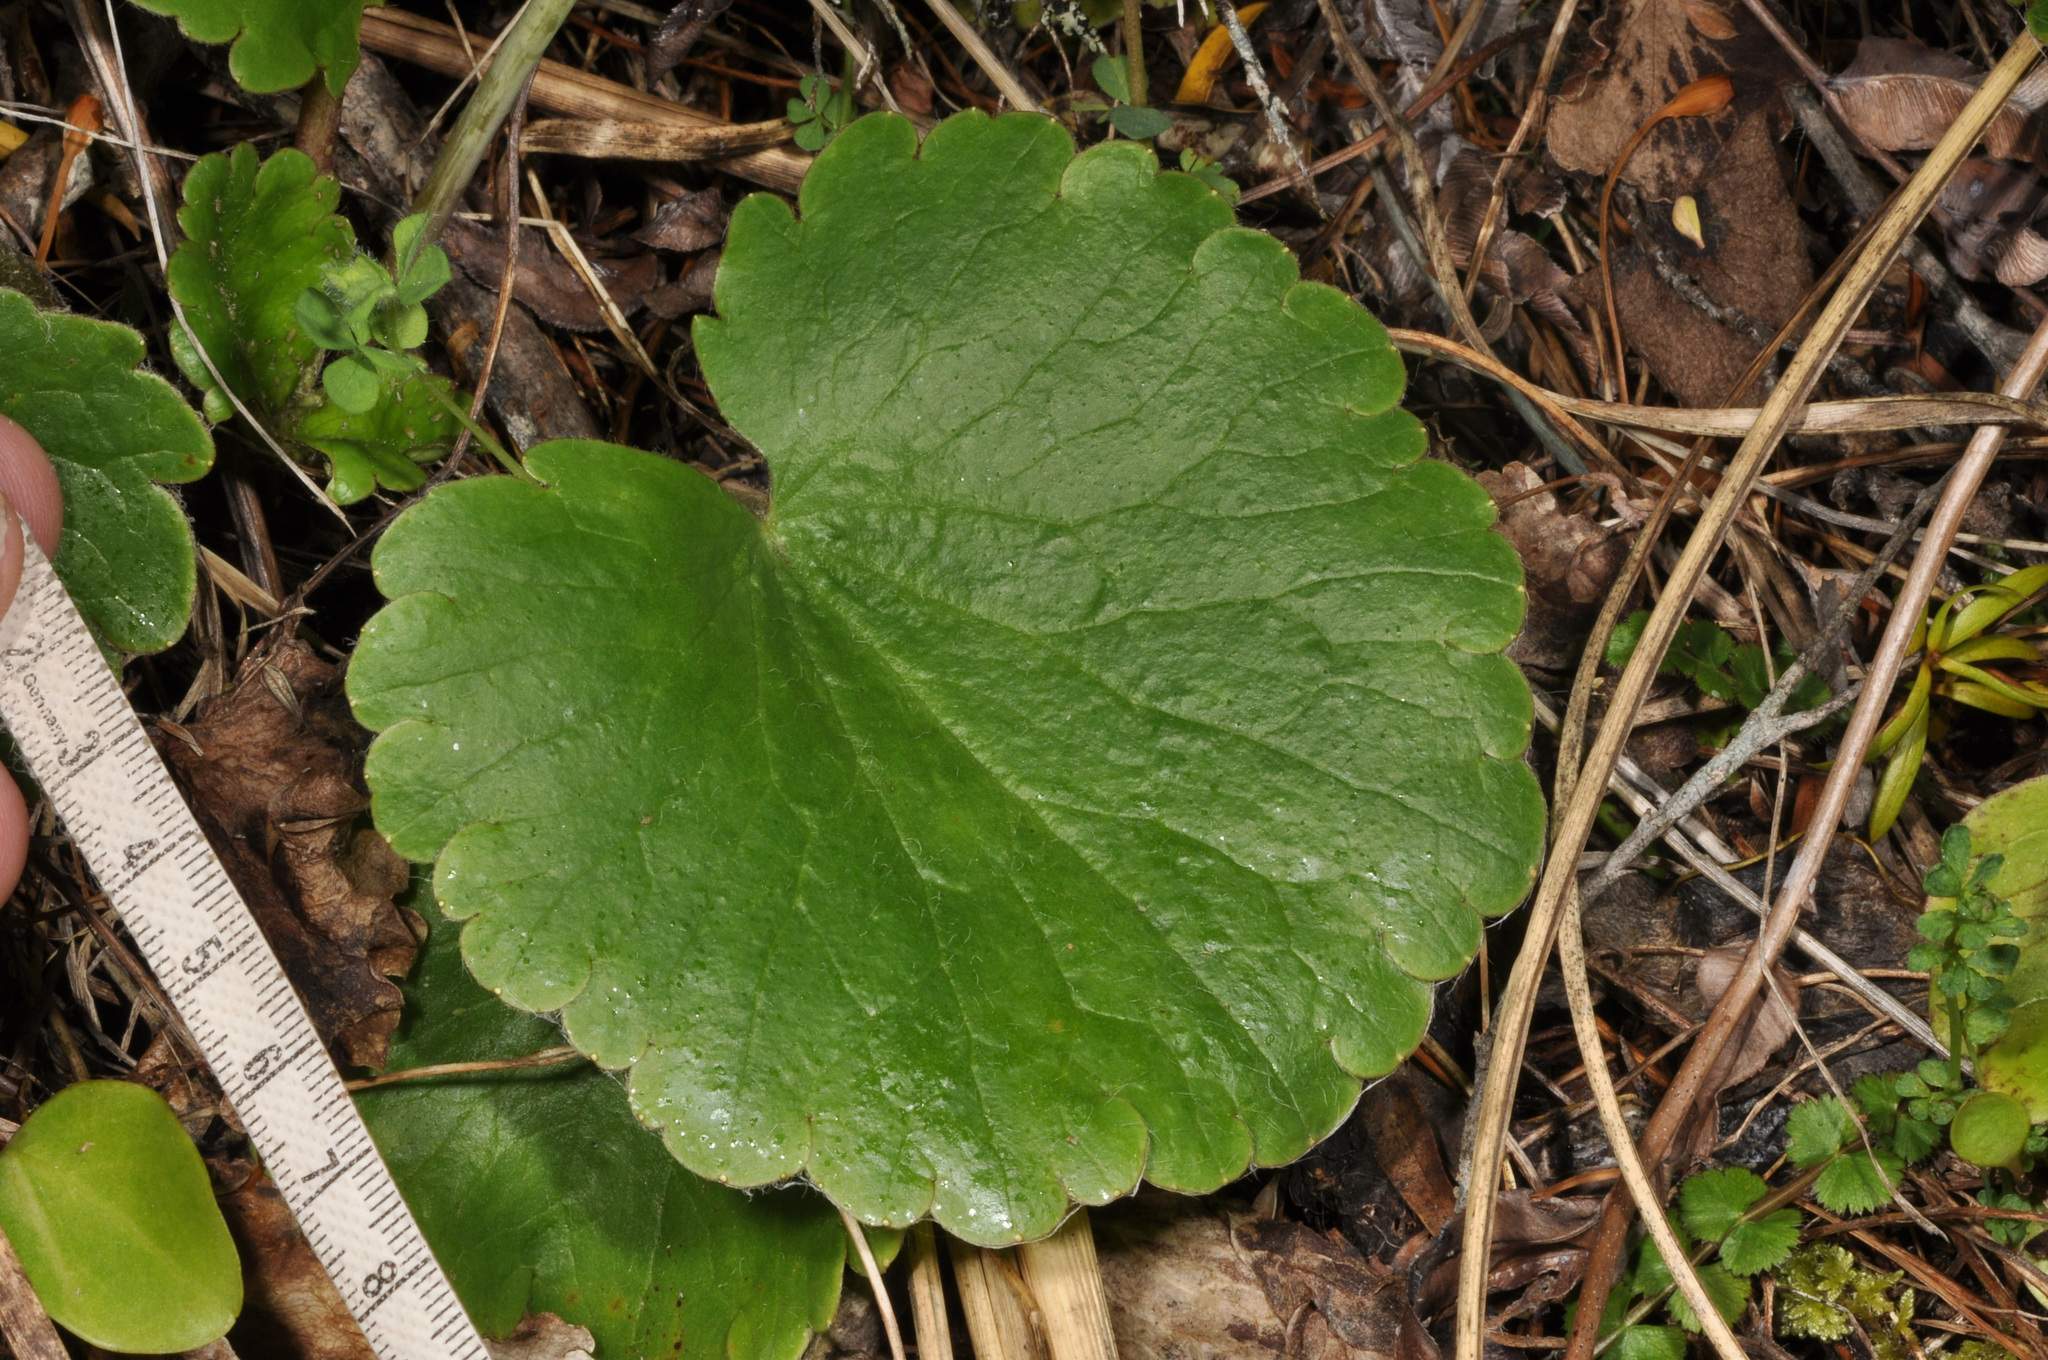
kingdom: Plantae
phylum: Tracheophyta
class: Magnoliopsida
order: Ranunculales
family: Ranunculaceae
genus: Ranunculus
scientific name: Ranunculus insignis
